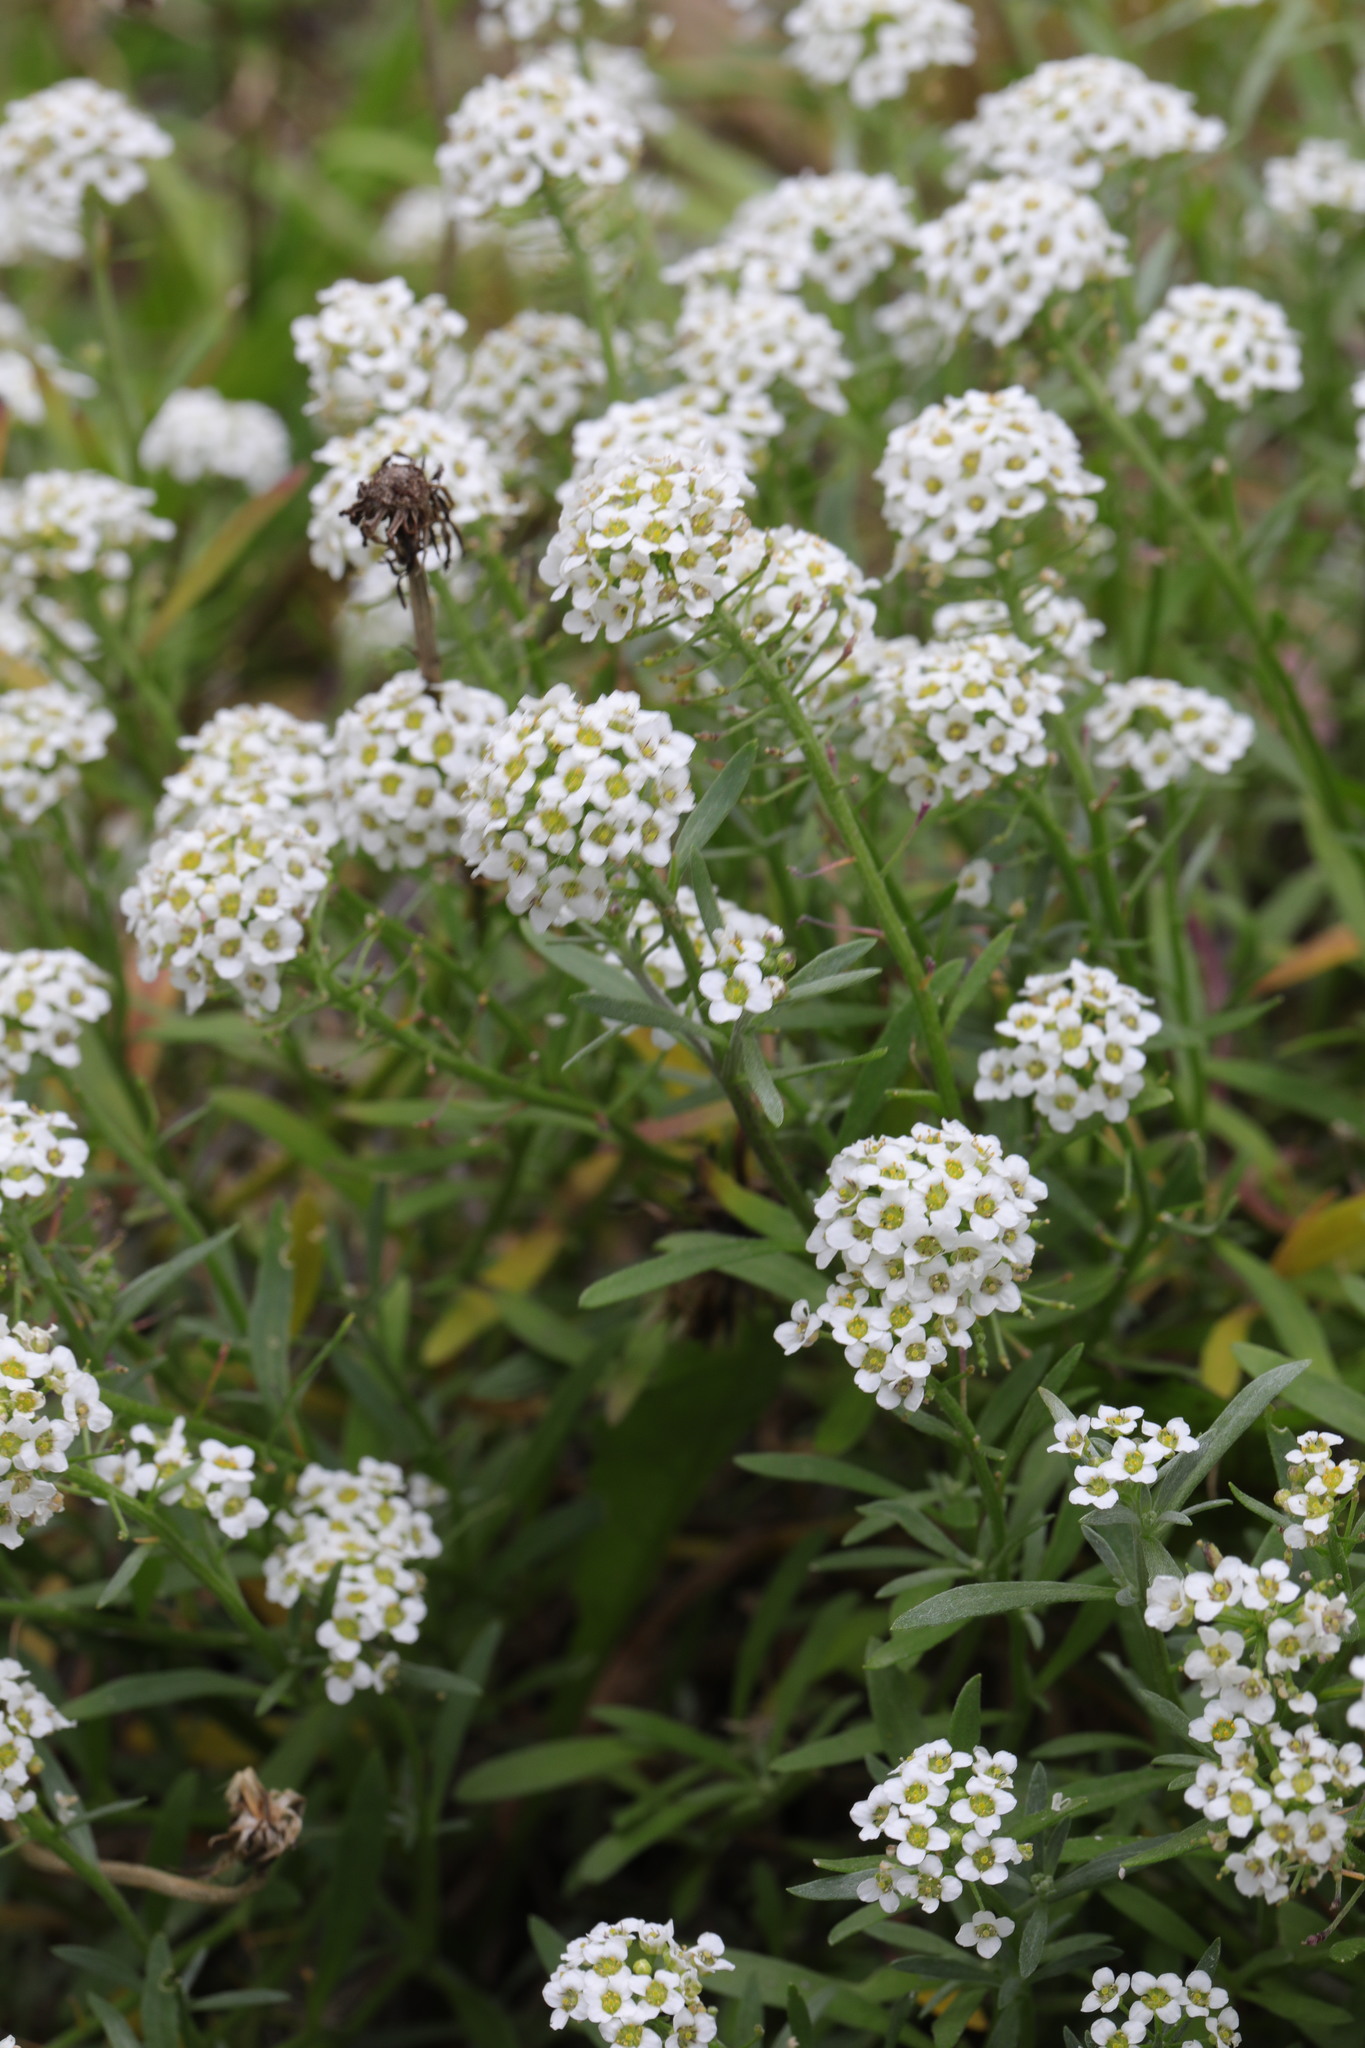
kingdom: Plantae
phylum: Tracheophyta
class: Magnoliopsida
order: Brassicales
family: Brassicaceae
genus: Lobularia
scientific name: Lobularia maritima
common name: Sweet alison
